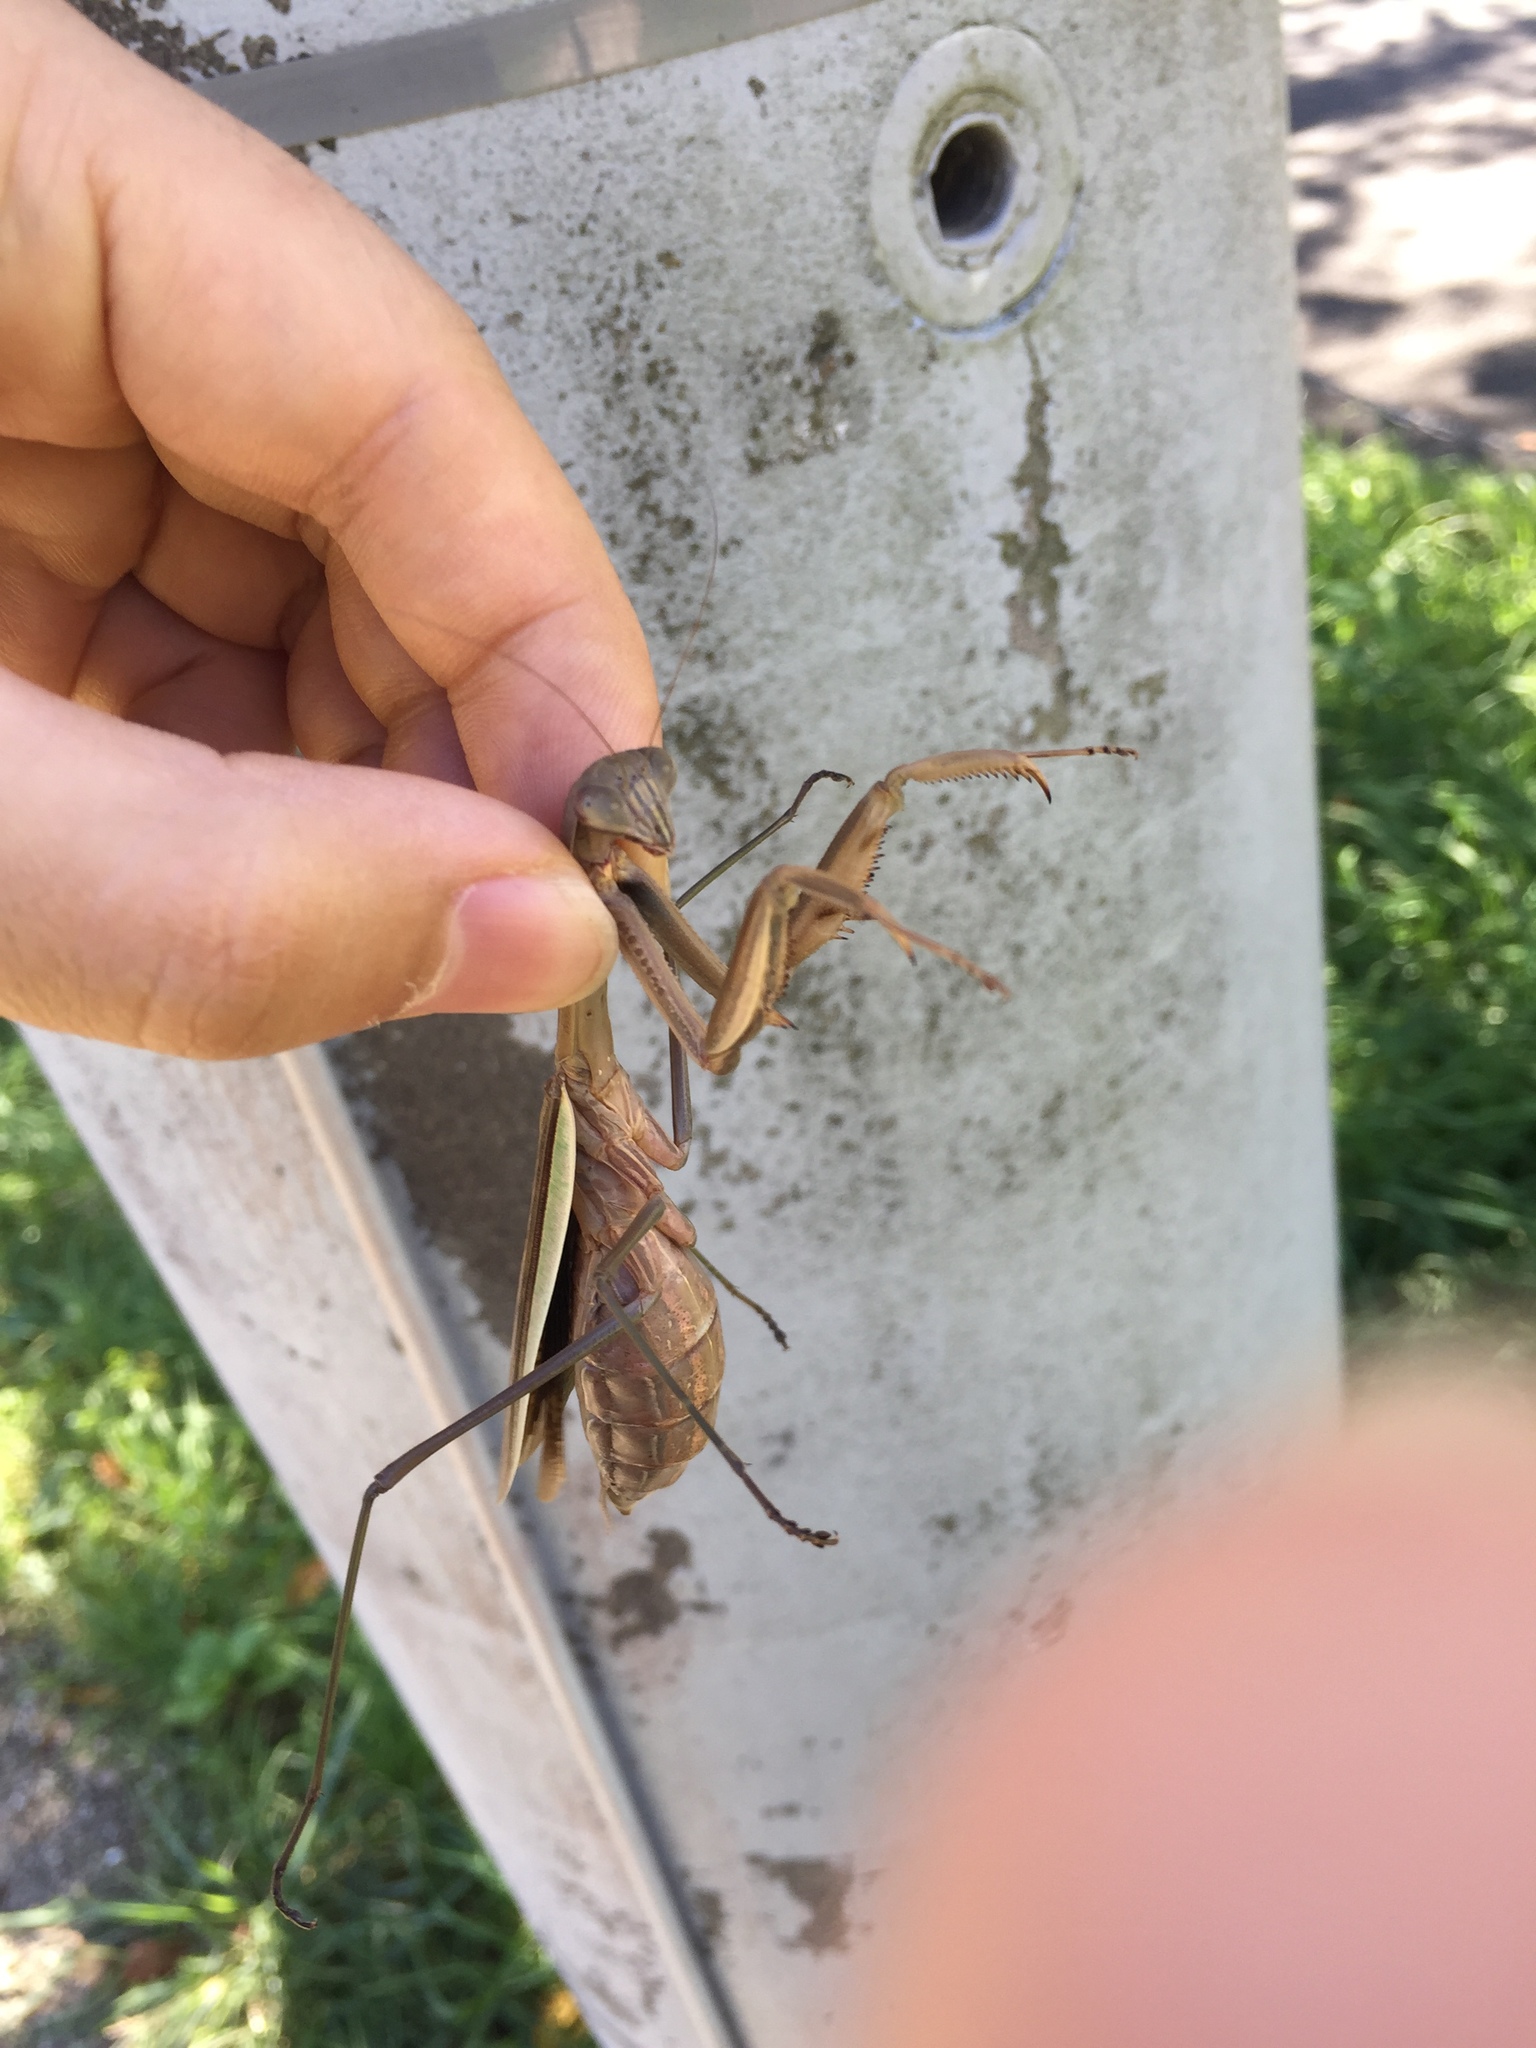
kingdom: Animalia
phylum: Arthropoda
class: Insecta
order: Mantodea
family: Mantidae
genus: Tenodera
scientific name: Tenodera sinensis
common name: Chinese mantis
